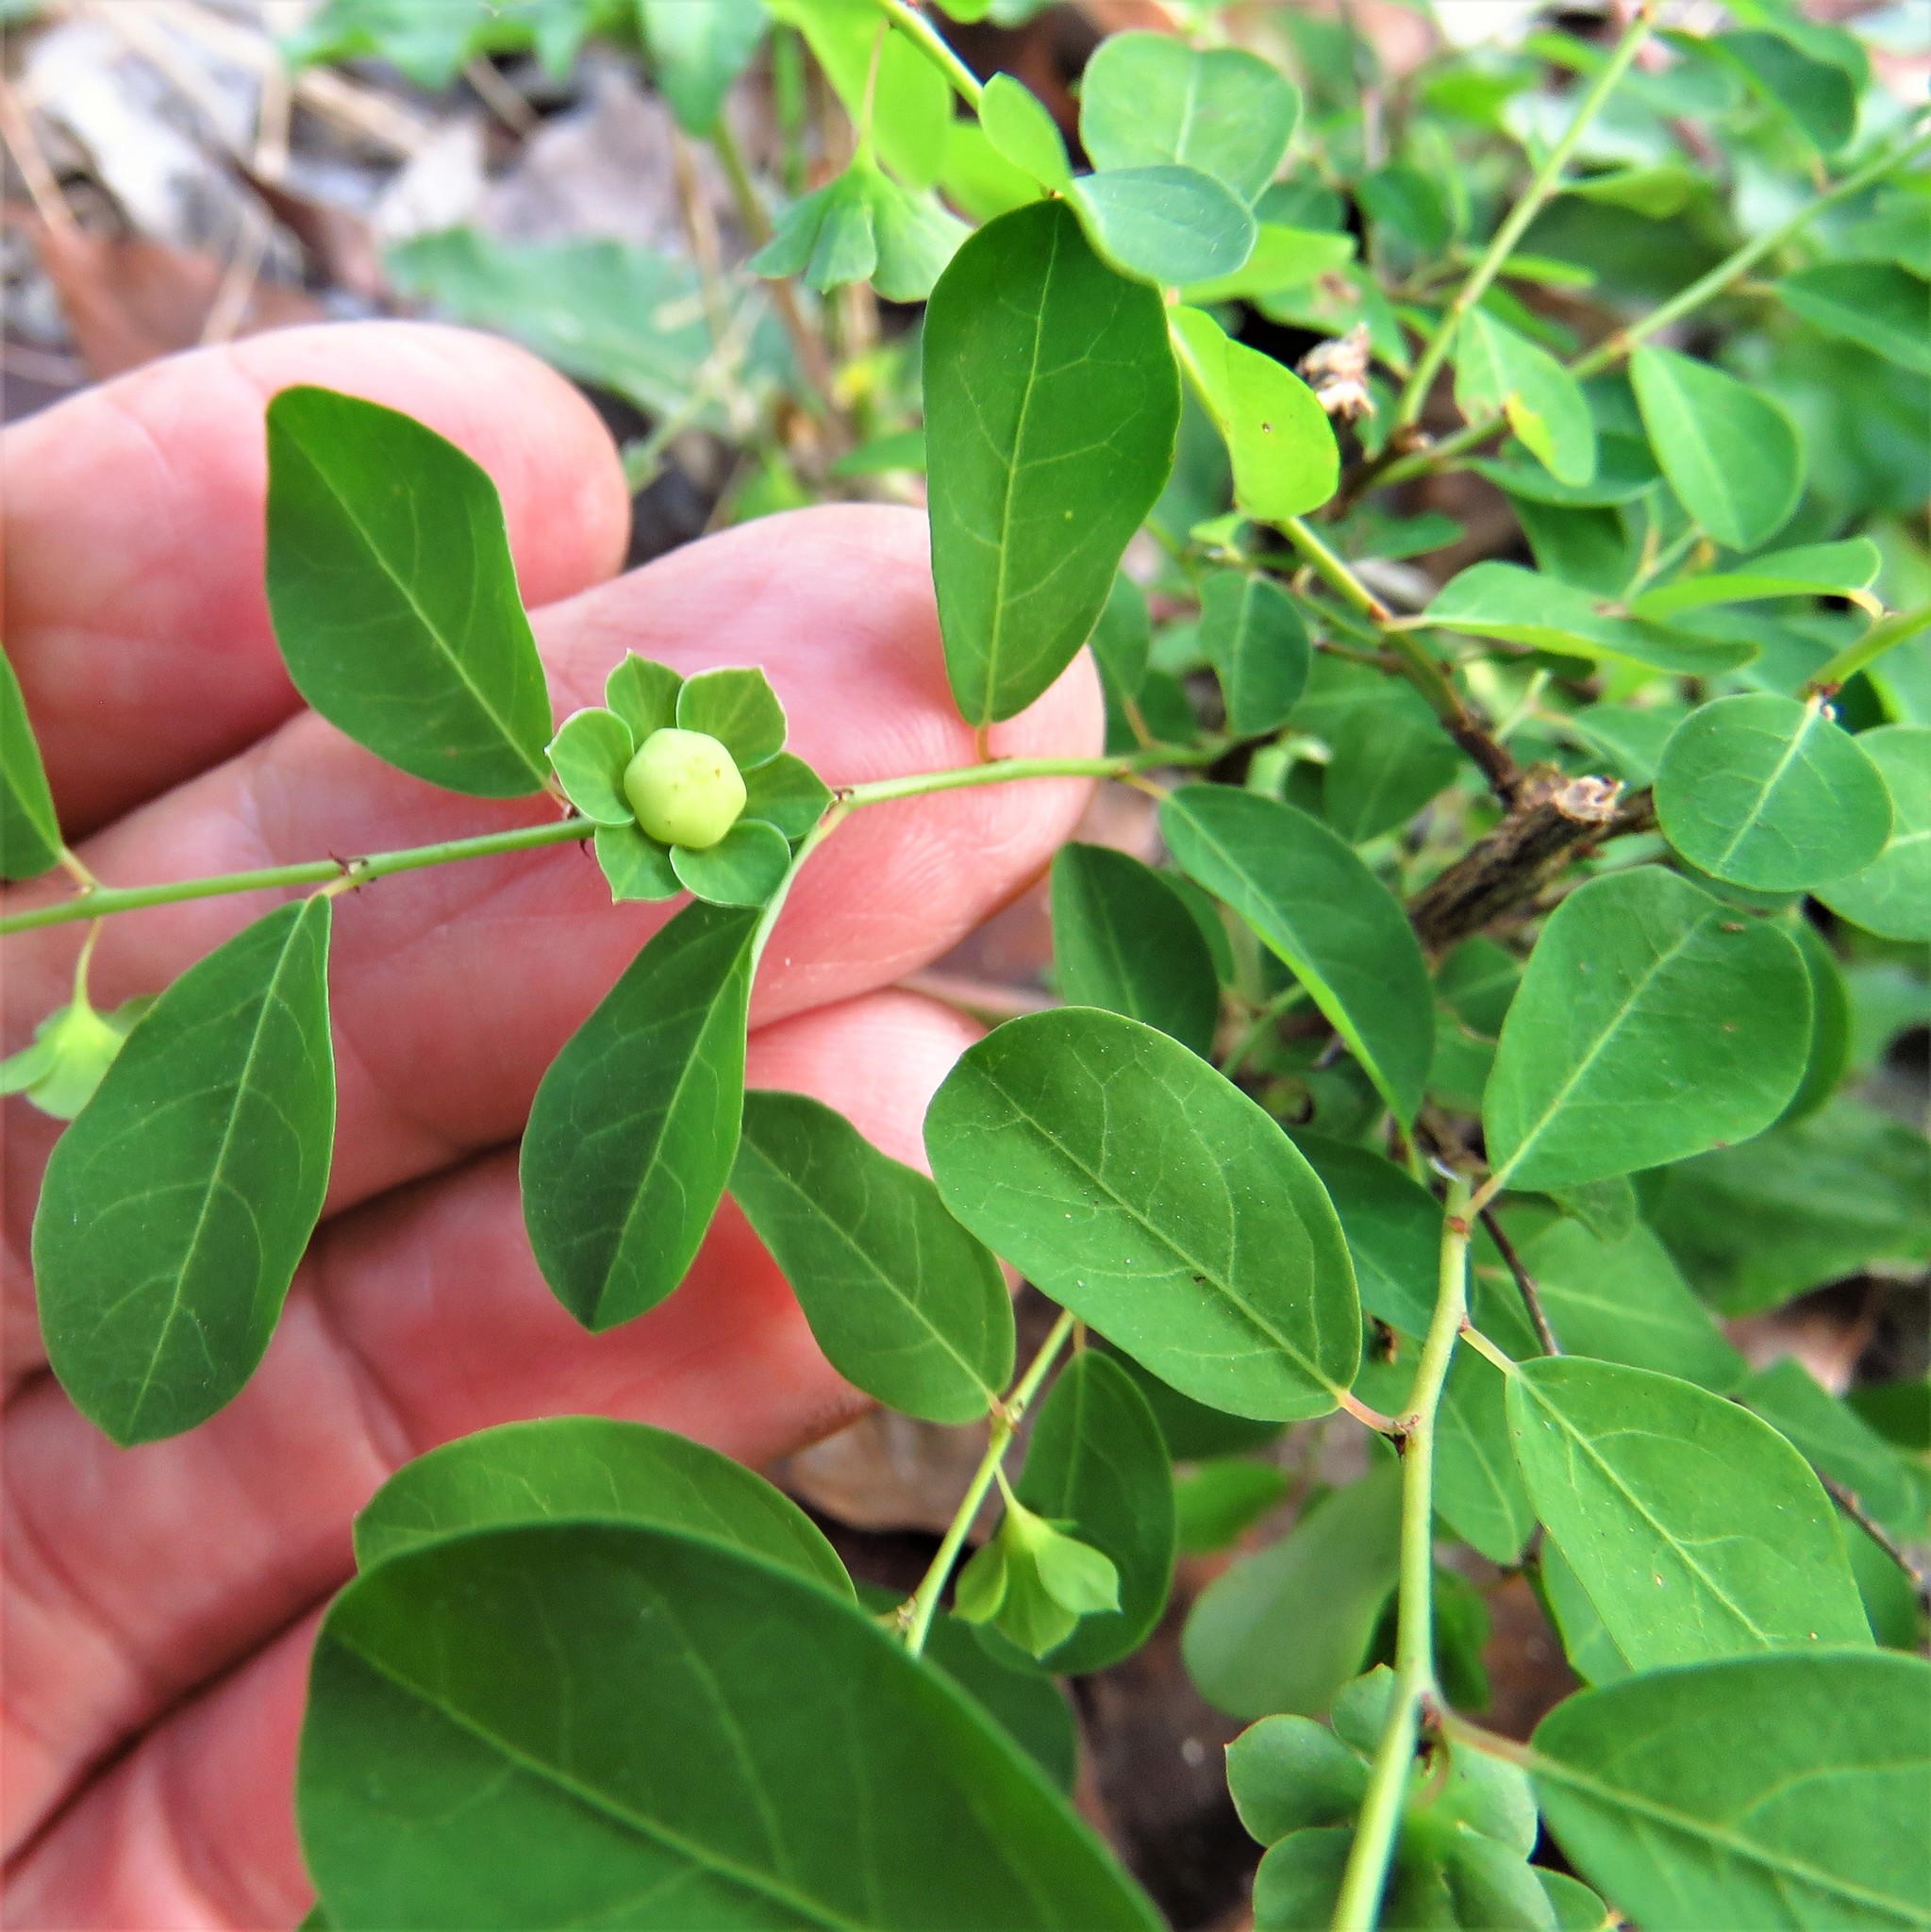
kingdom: Plantae
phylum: Tracheophyta
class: Magnoliopsida
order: Malpighiales
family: Phyllanthaceae
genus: Phyllanthus
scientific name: Phyllanthus liebmannianus
